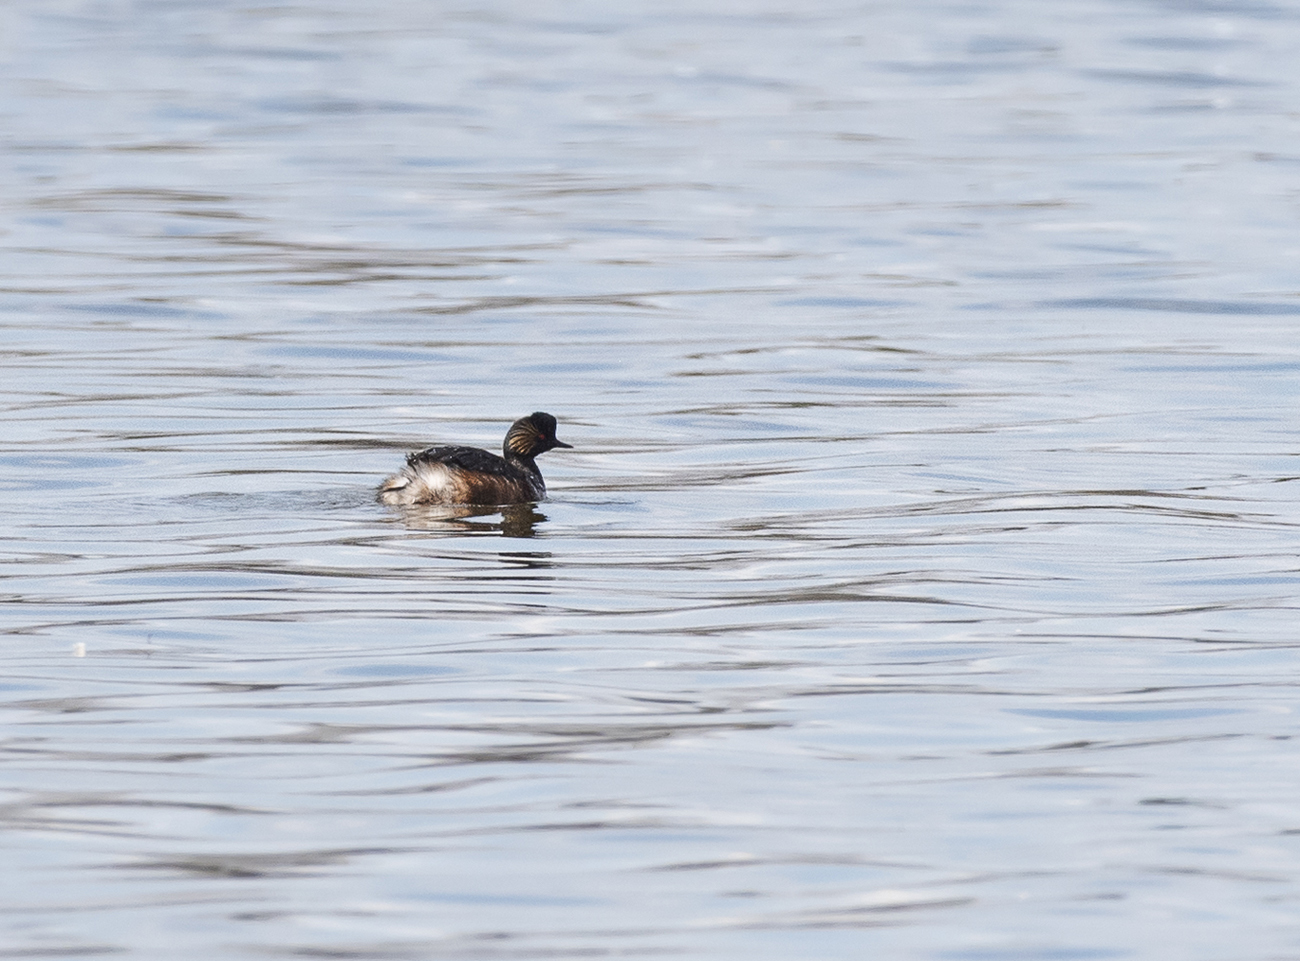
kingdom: Animalia
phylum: Chordata
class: Aves
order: Podicipediformes
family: Podicipedidae
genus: Podiceps
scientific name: Podiceps nigricollis
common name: Black-necked grebe
